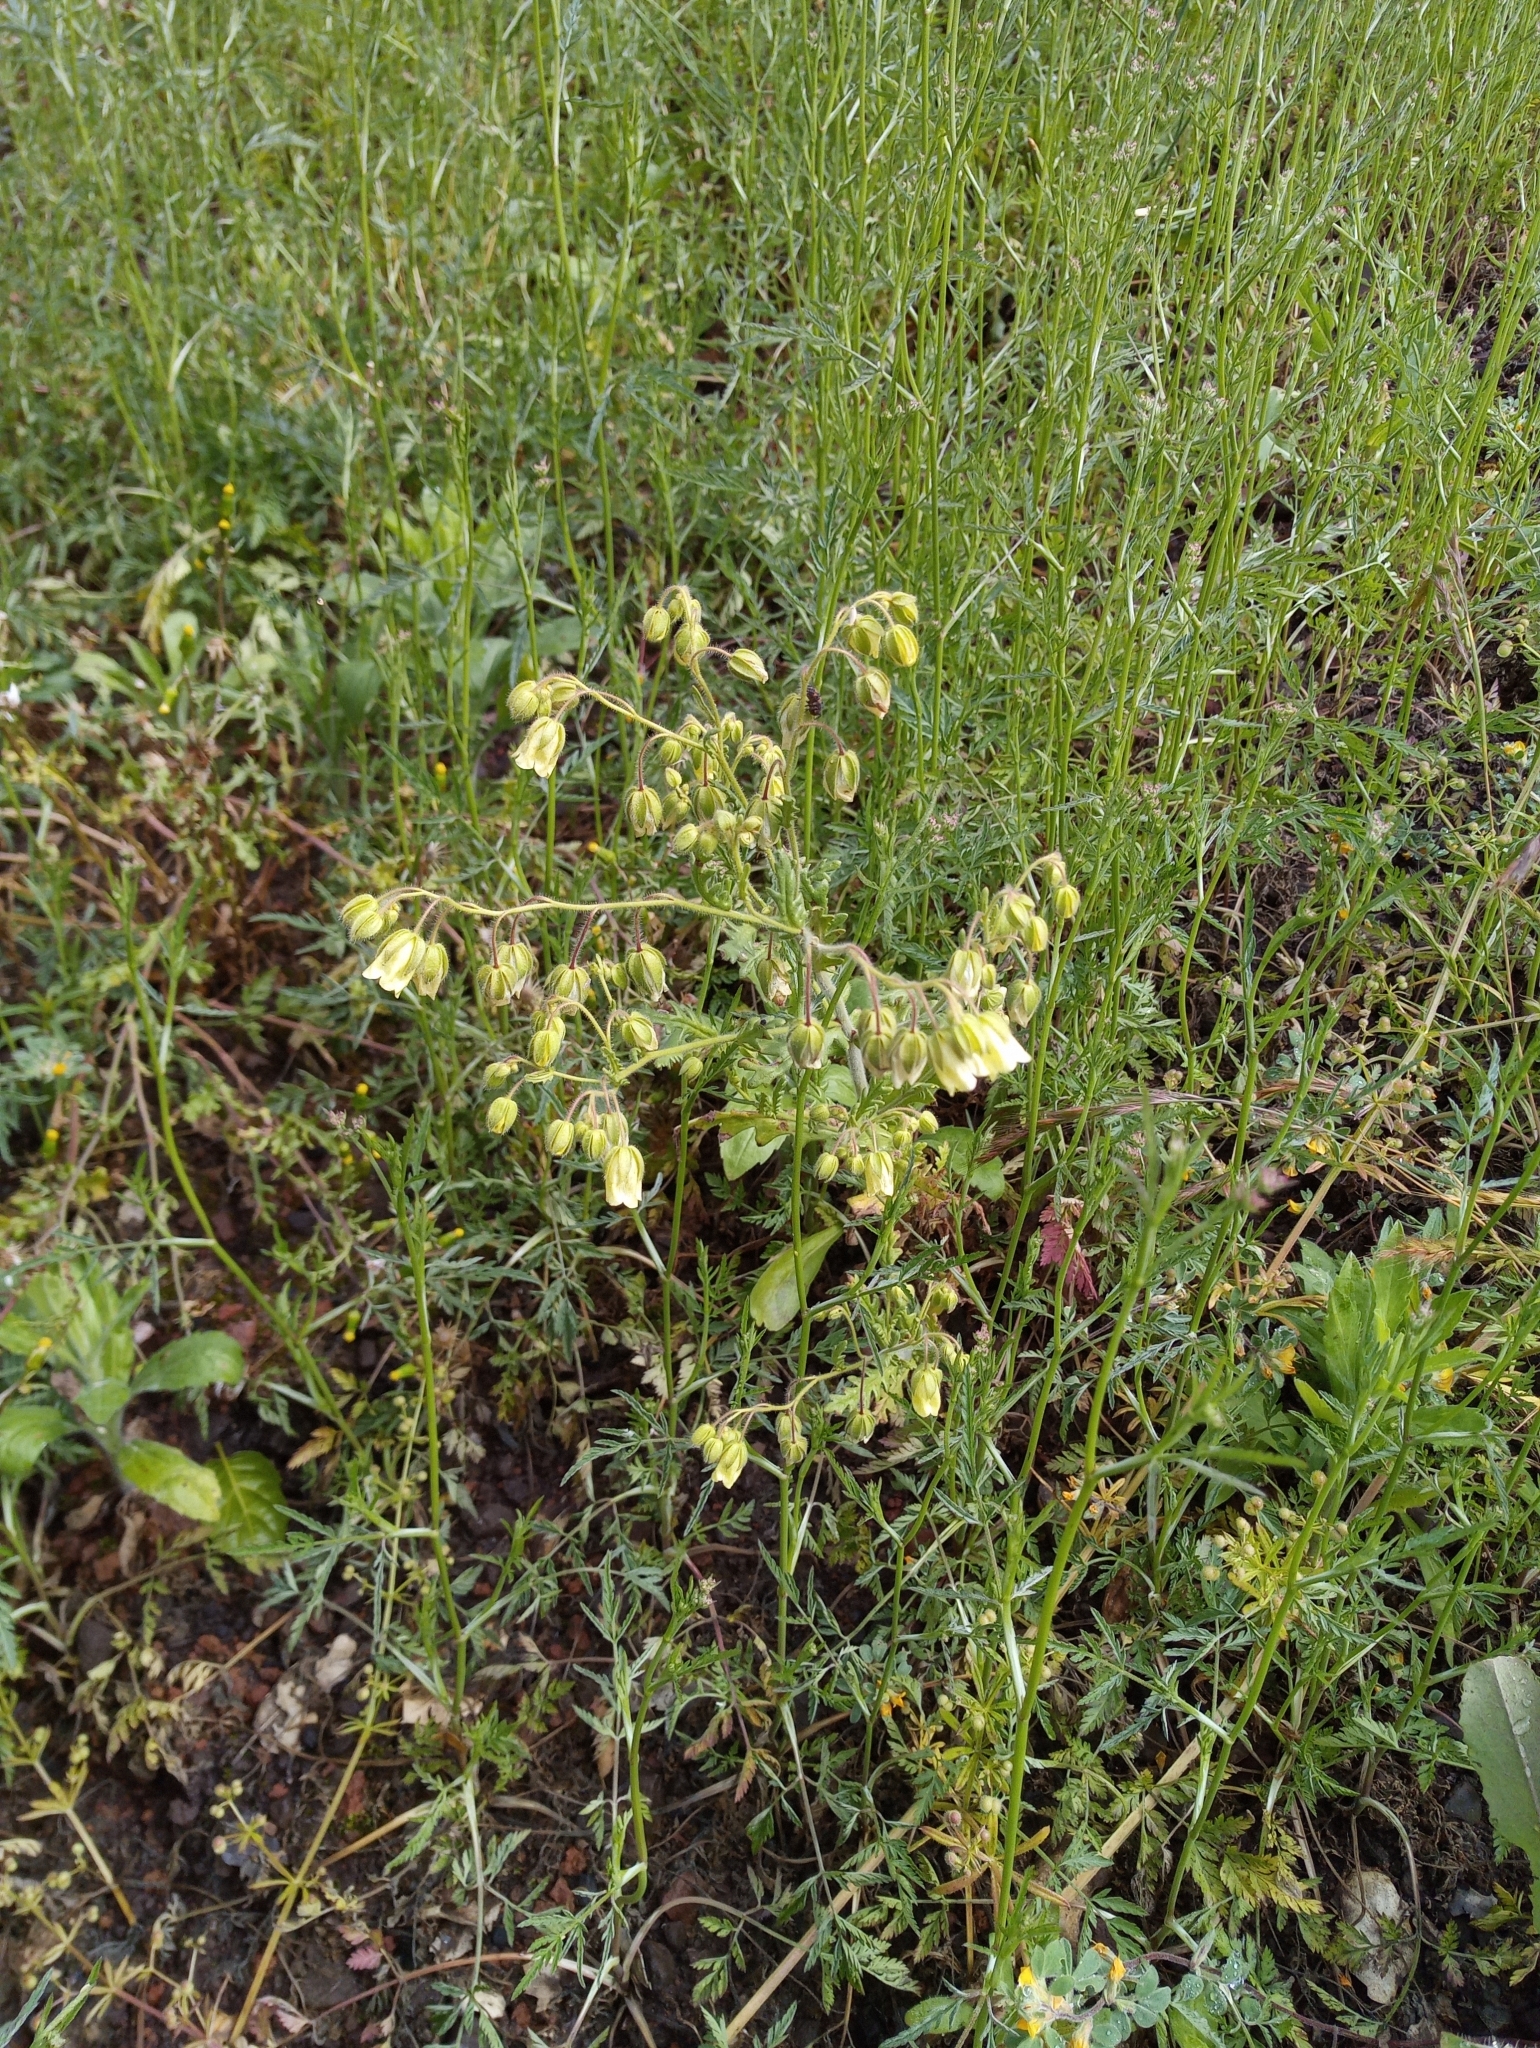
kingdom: Plantae
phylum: Tracheophyta
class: Magnoliopsida
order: Boraginales
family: Hydrophyllaceae
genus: Emmenanthe
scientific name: Emmenanthe penduliflora
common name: Whispering-bells
